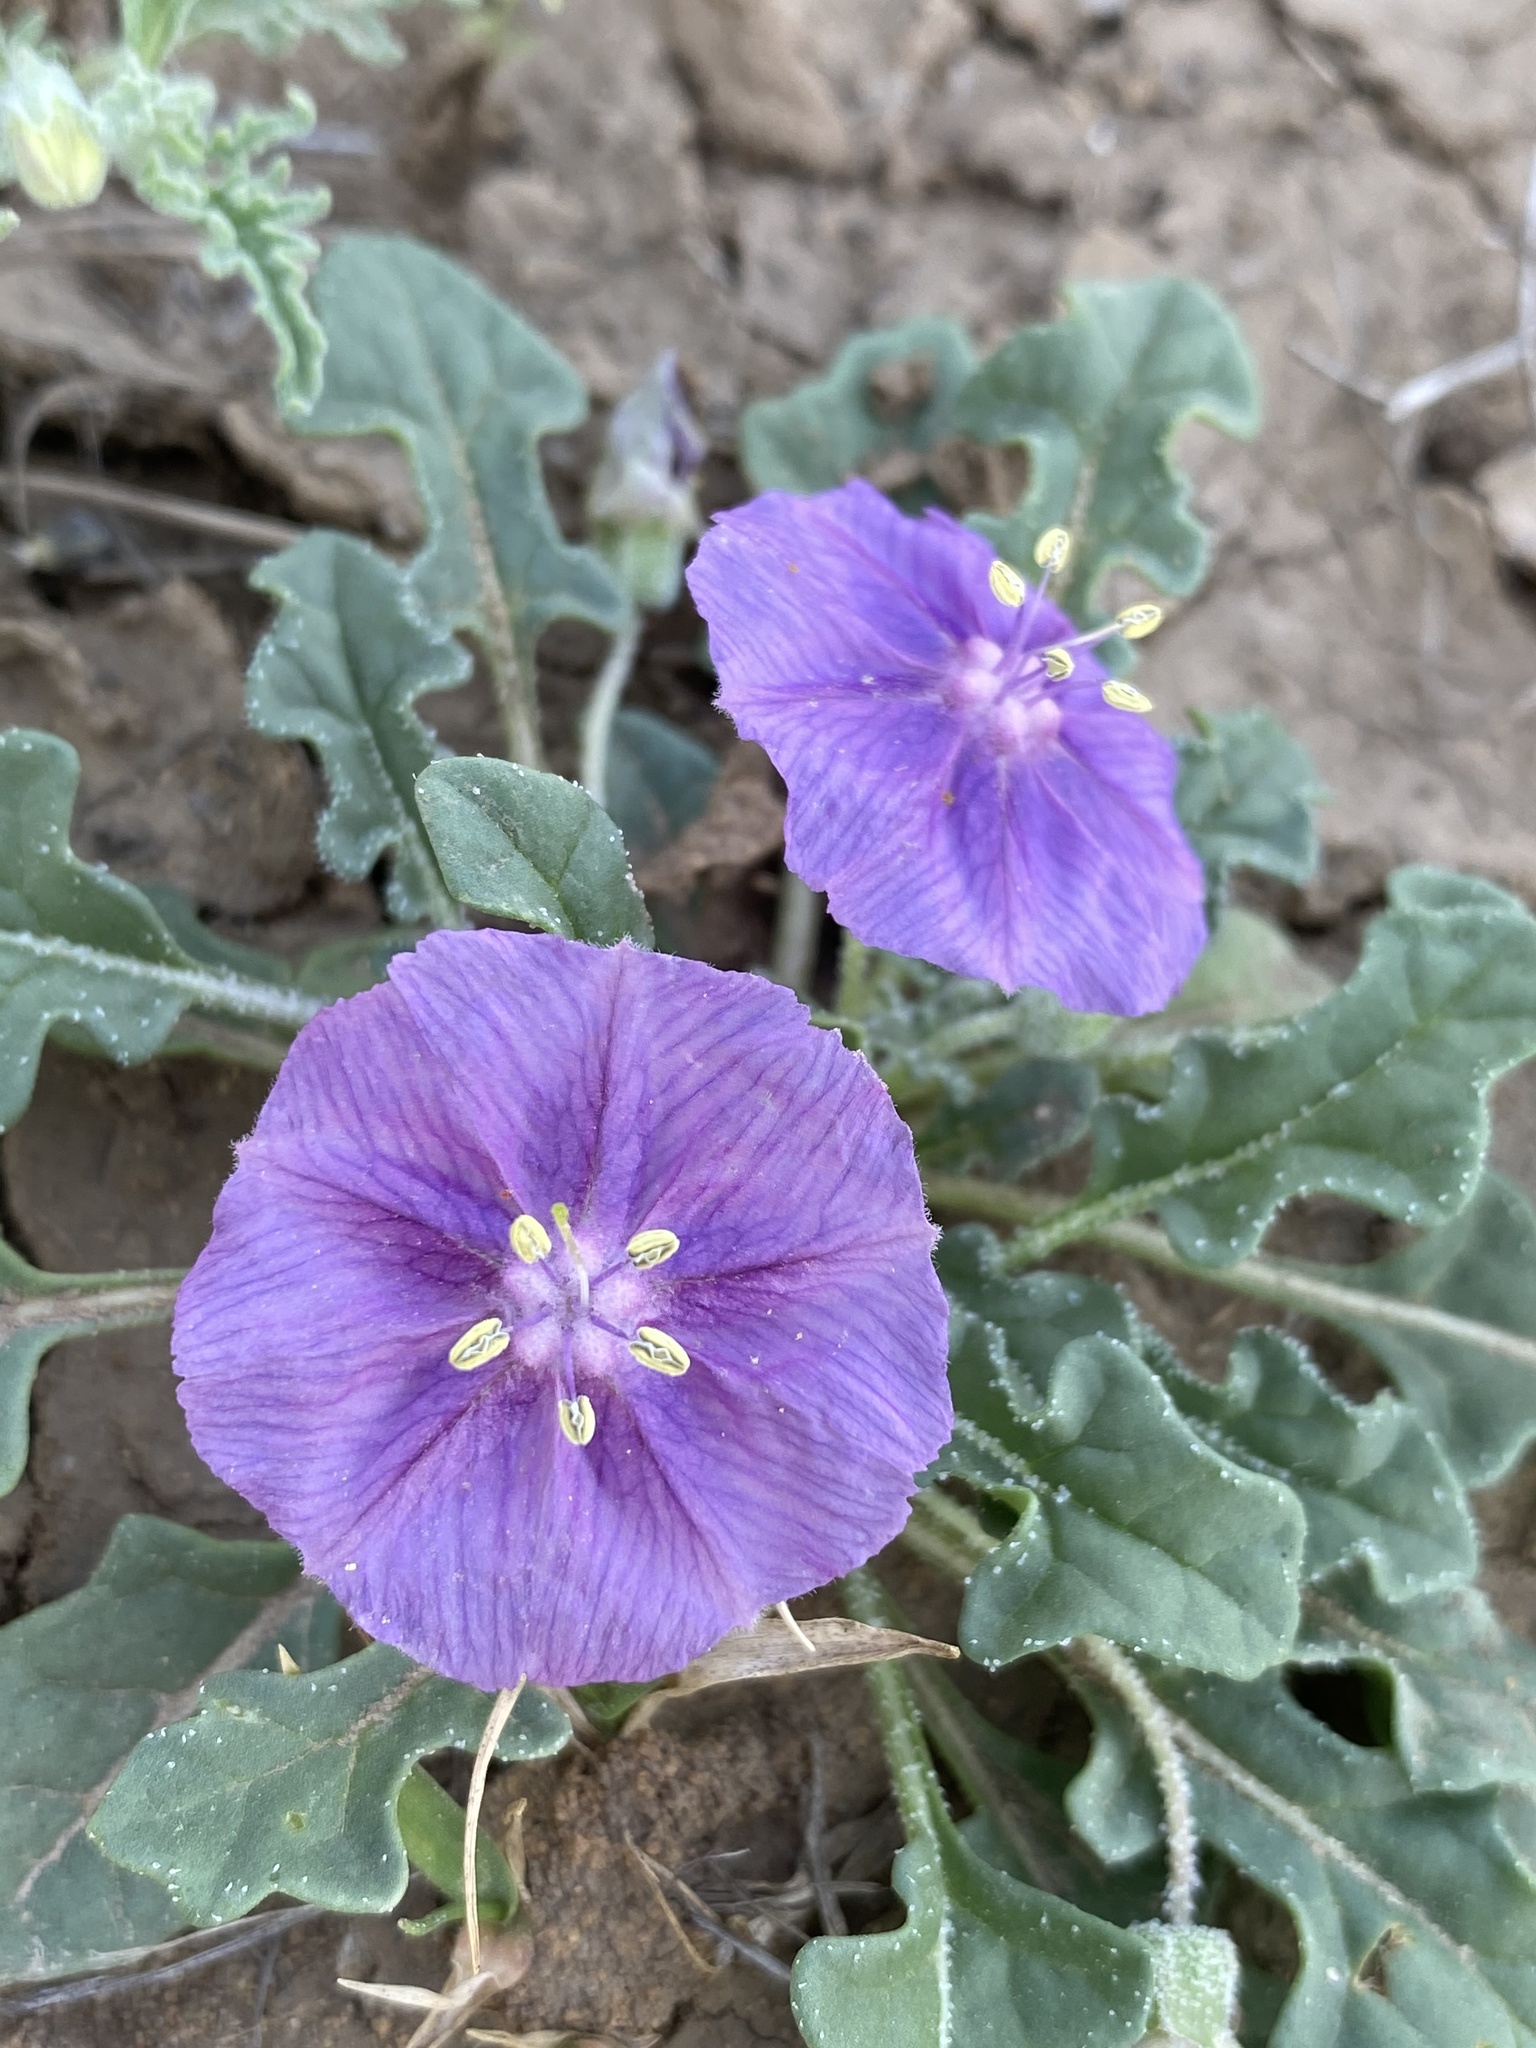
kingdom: Plantae
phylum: Tracheophyta
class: Magnoliopsida
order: Solanales
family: Solanaceae
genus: Quincula
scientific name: Quincula lobata
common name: Purple-ground-cherry
